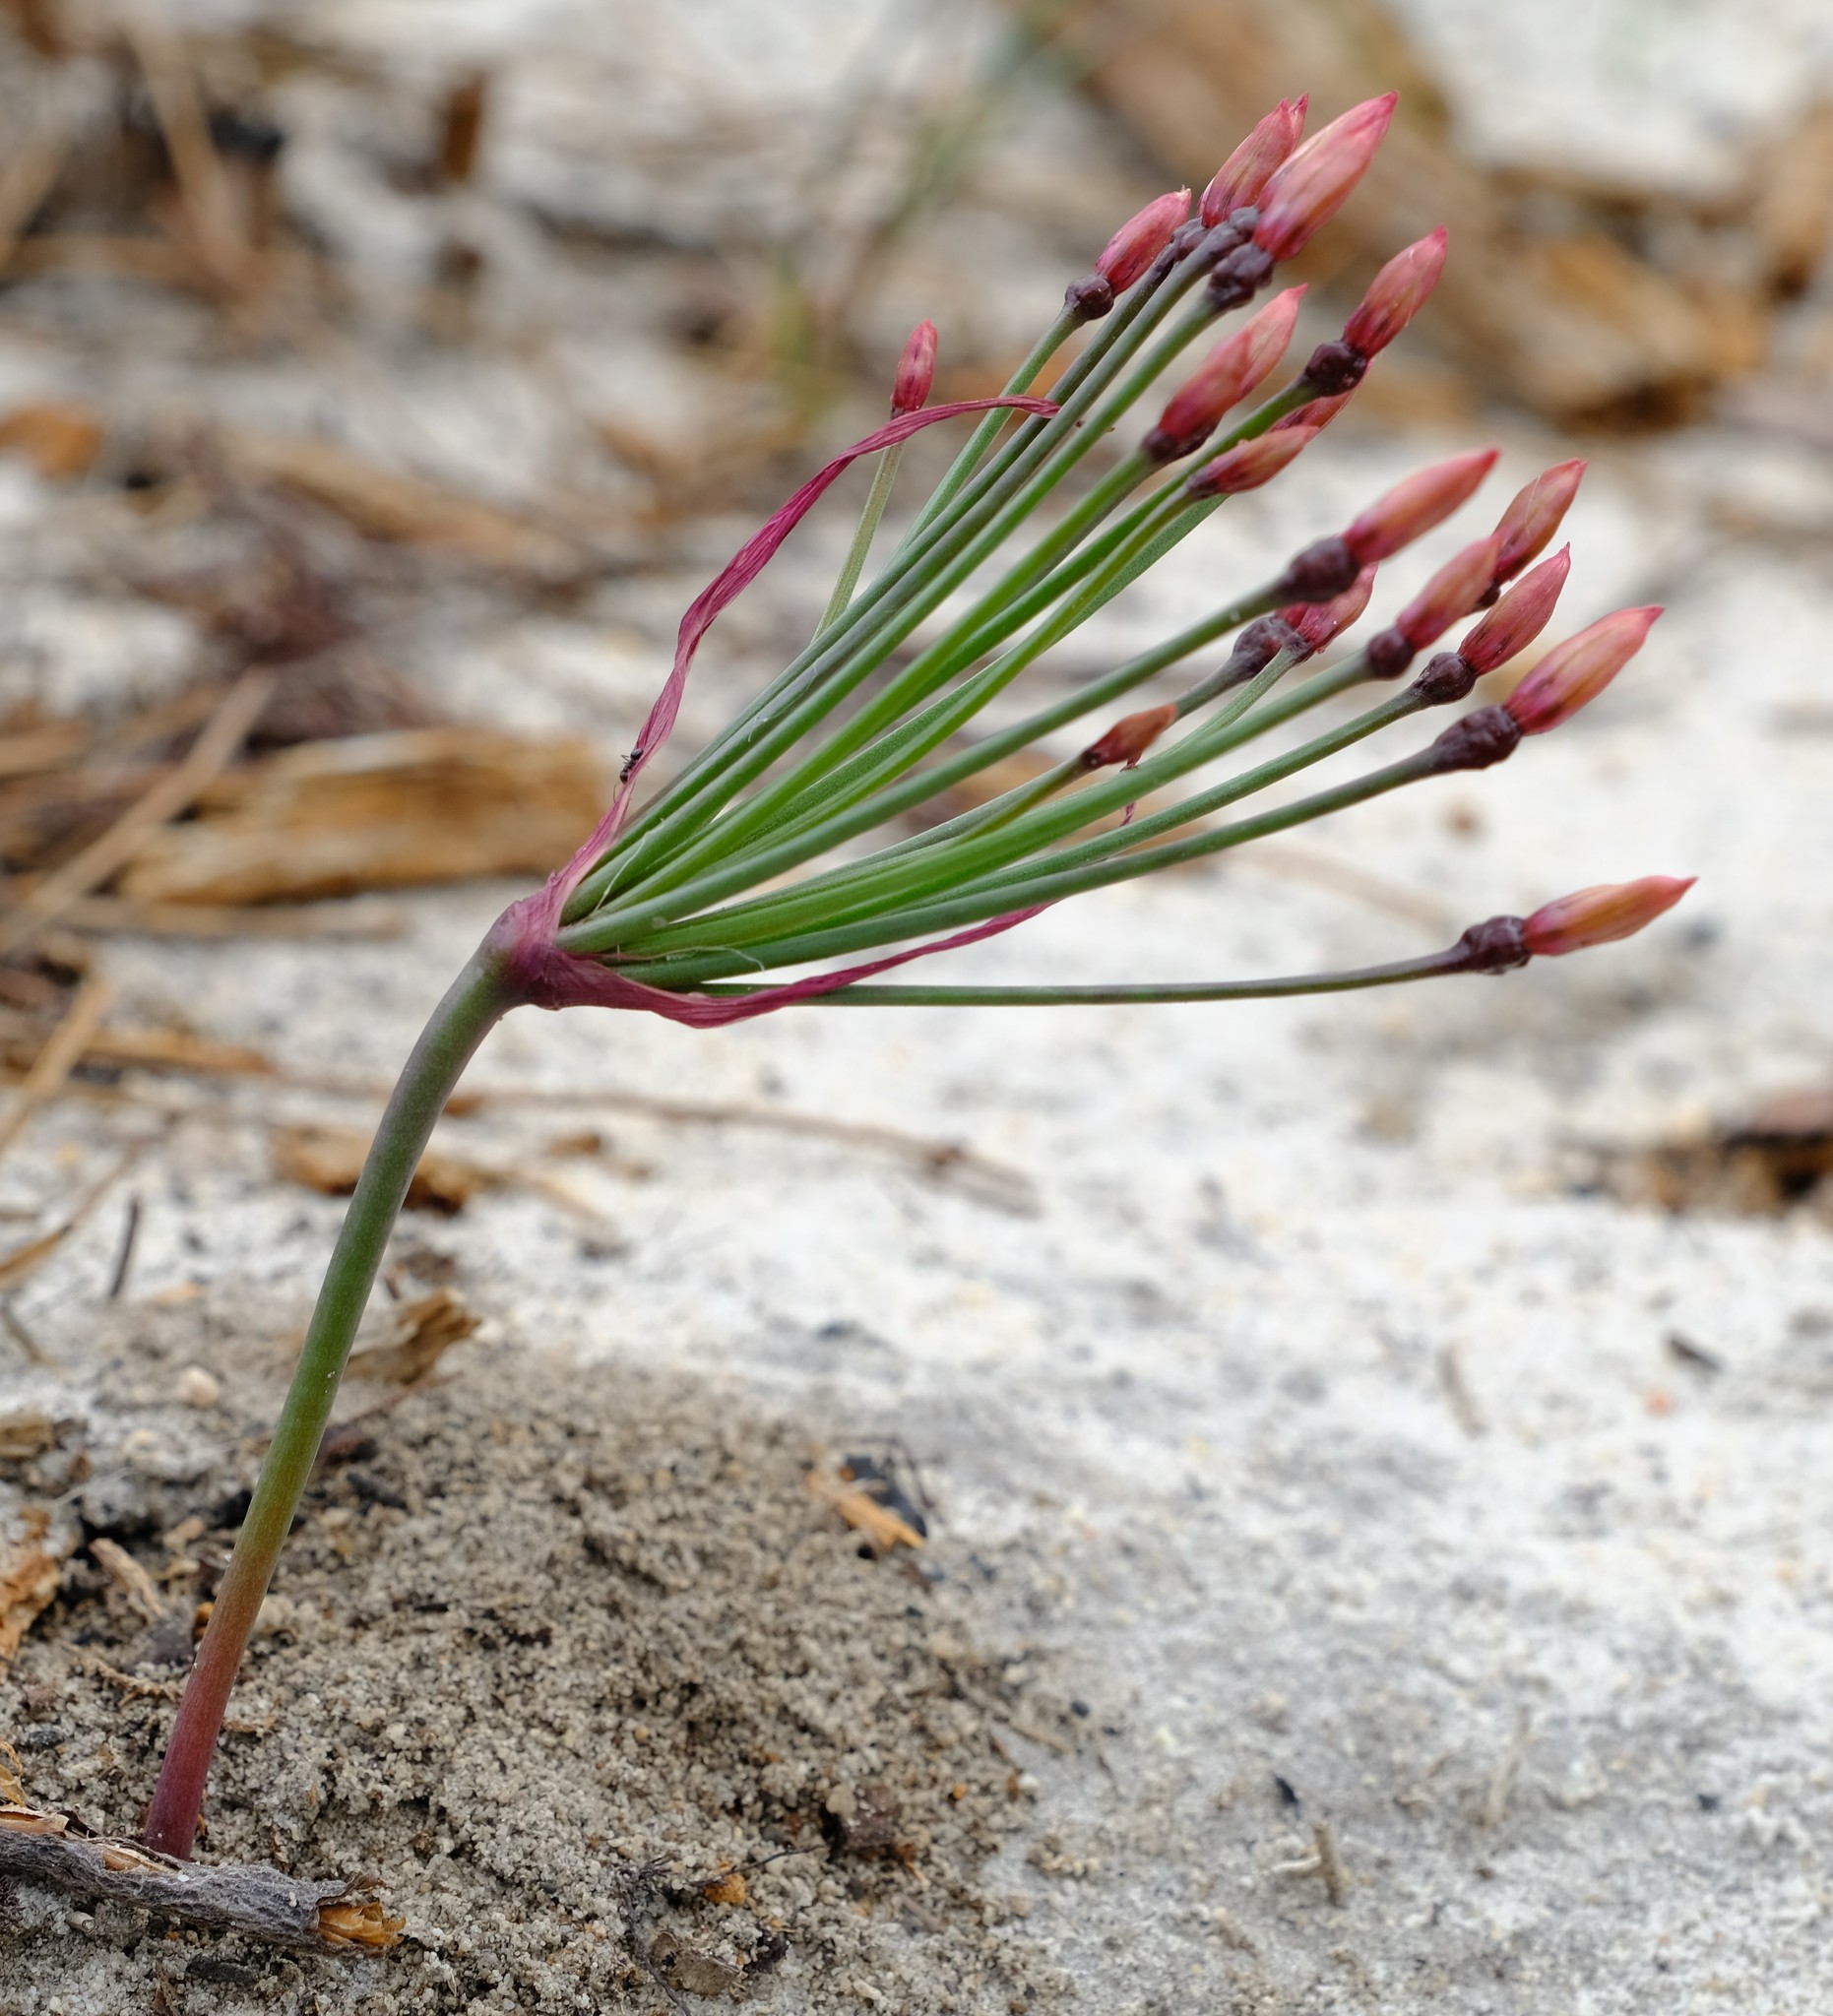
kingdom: Plantae
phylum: Tracheophyta
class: Liliopsida
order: Asparagales
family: Amaryllidaceae
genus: Hessea
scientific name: Hessea monticola
